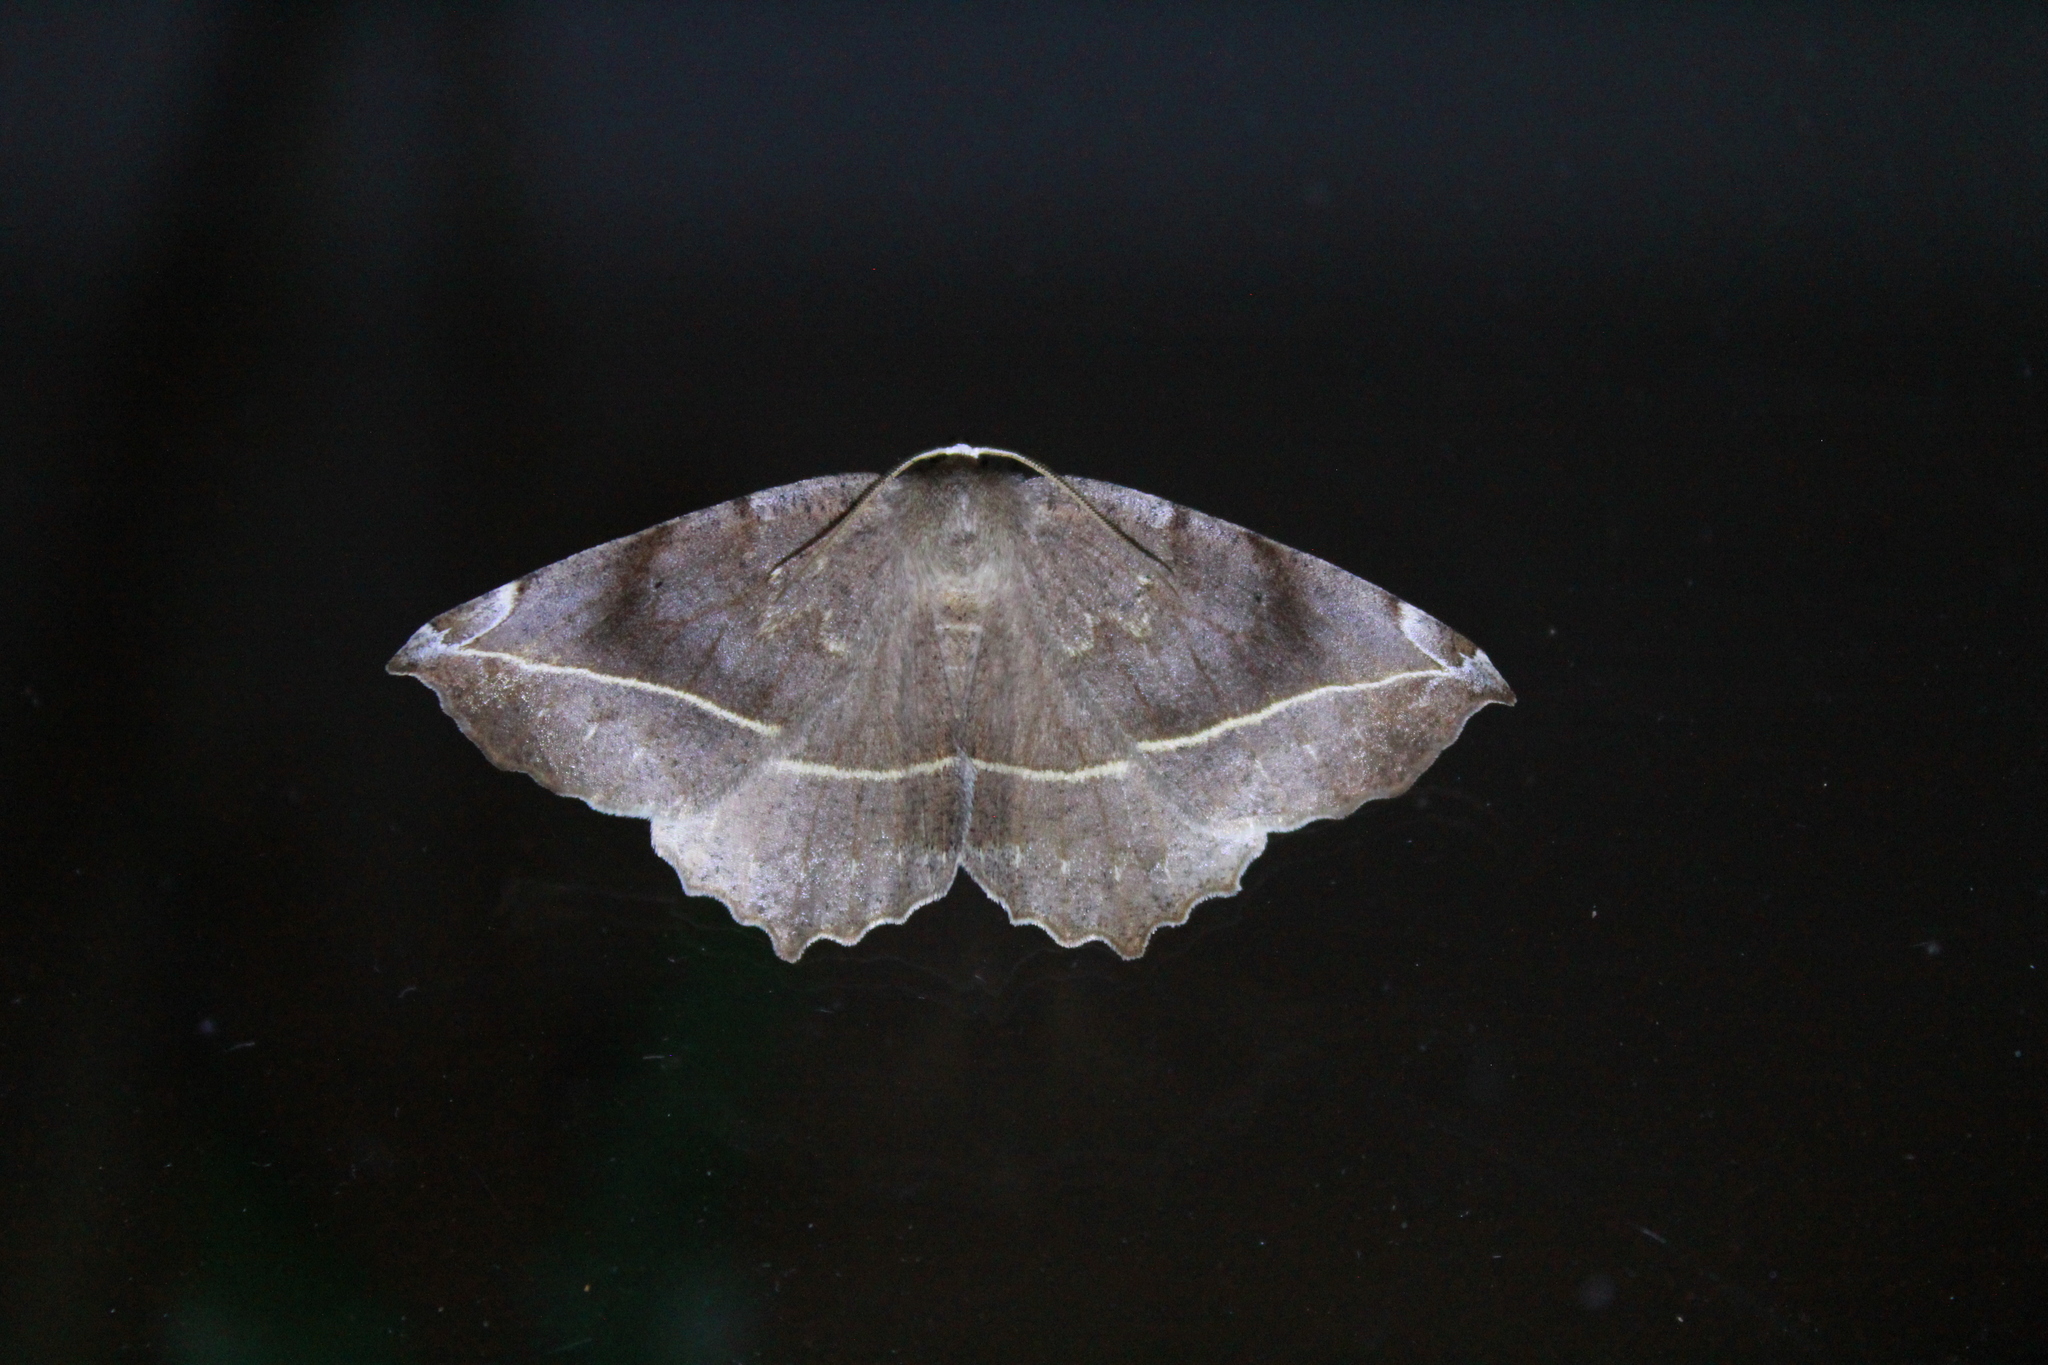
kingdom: Animalia
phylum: Arthropoda
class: Insecta
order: Lepidoptera
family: Geometridae
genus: Eutrapela
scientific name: Eutrapela clemataria
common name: Curved-toothed geometer
